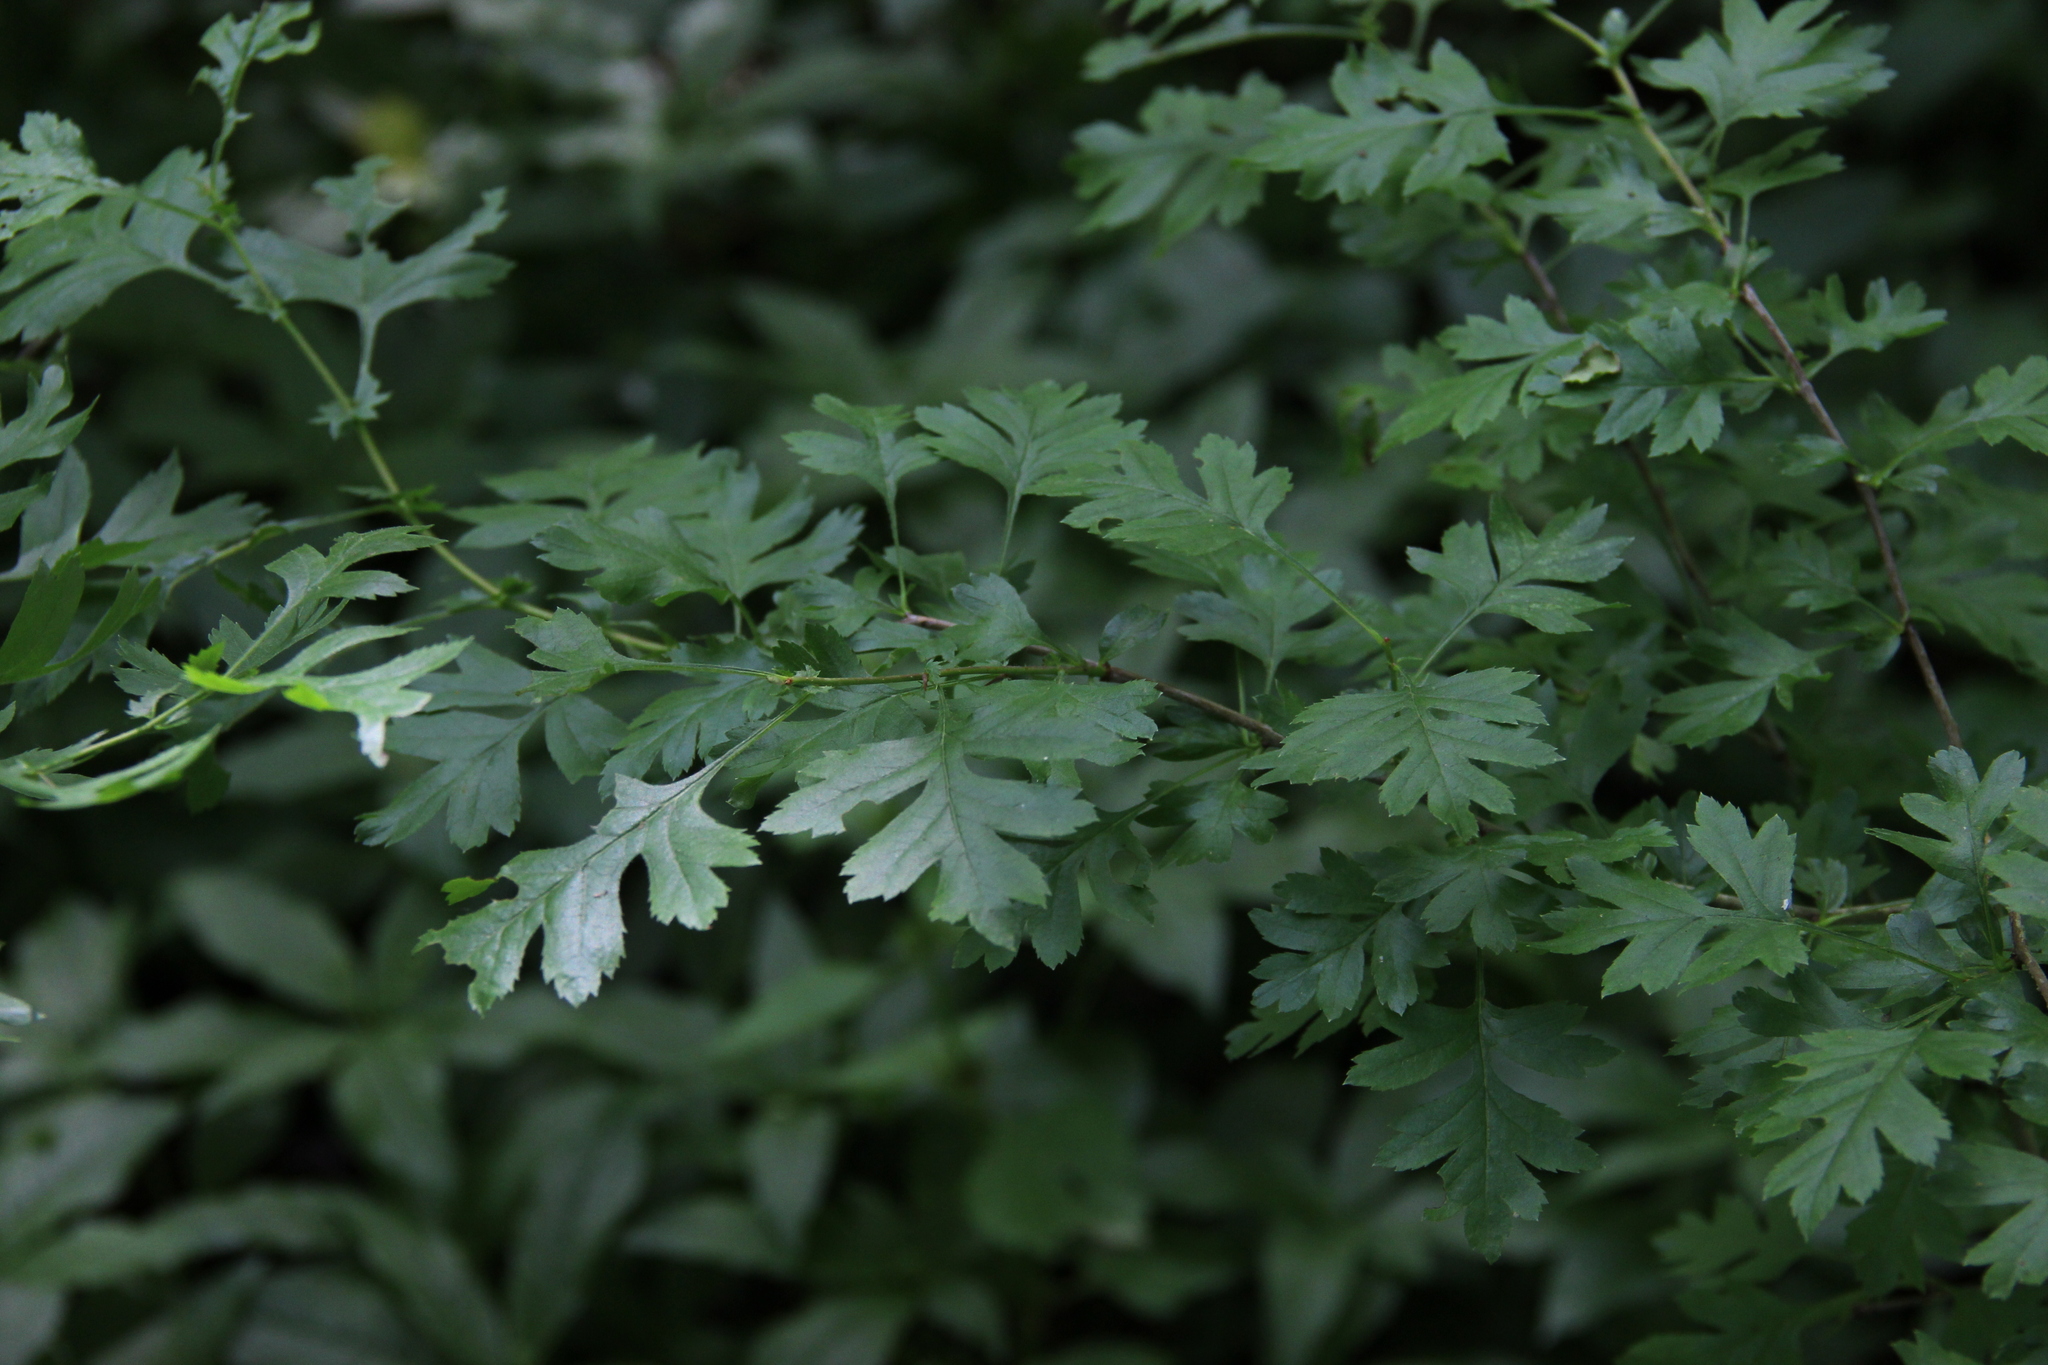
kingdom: Plantae
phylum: Tracheophyta
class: Magnoliopsida
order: Rosales
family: Rosaceae
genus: Crataegus
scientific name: Crataegus monogyna
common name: Hawthorn
